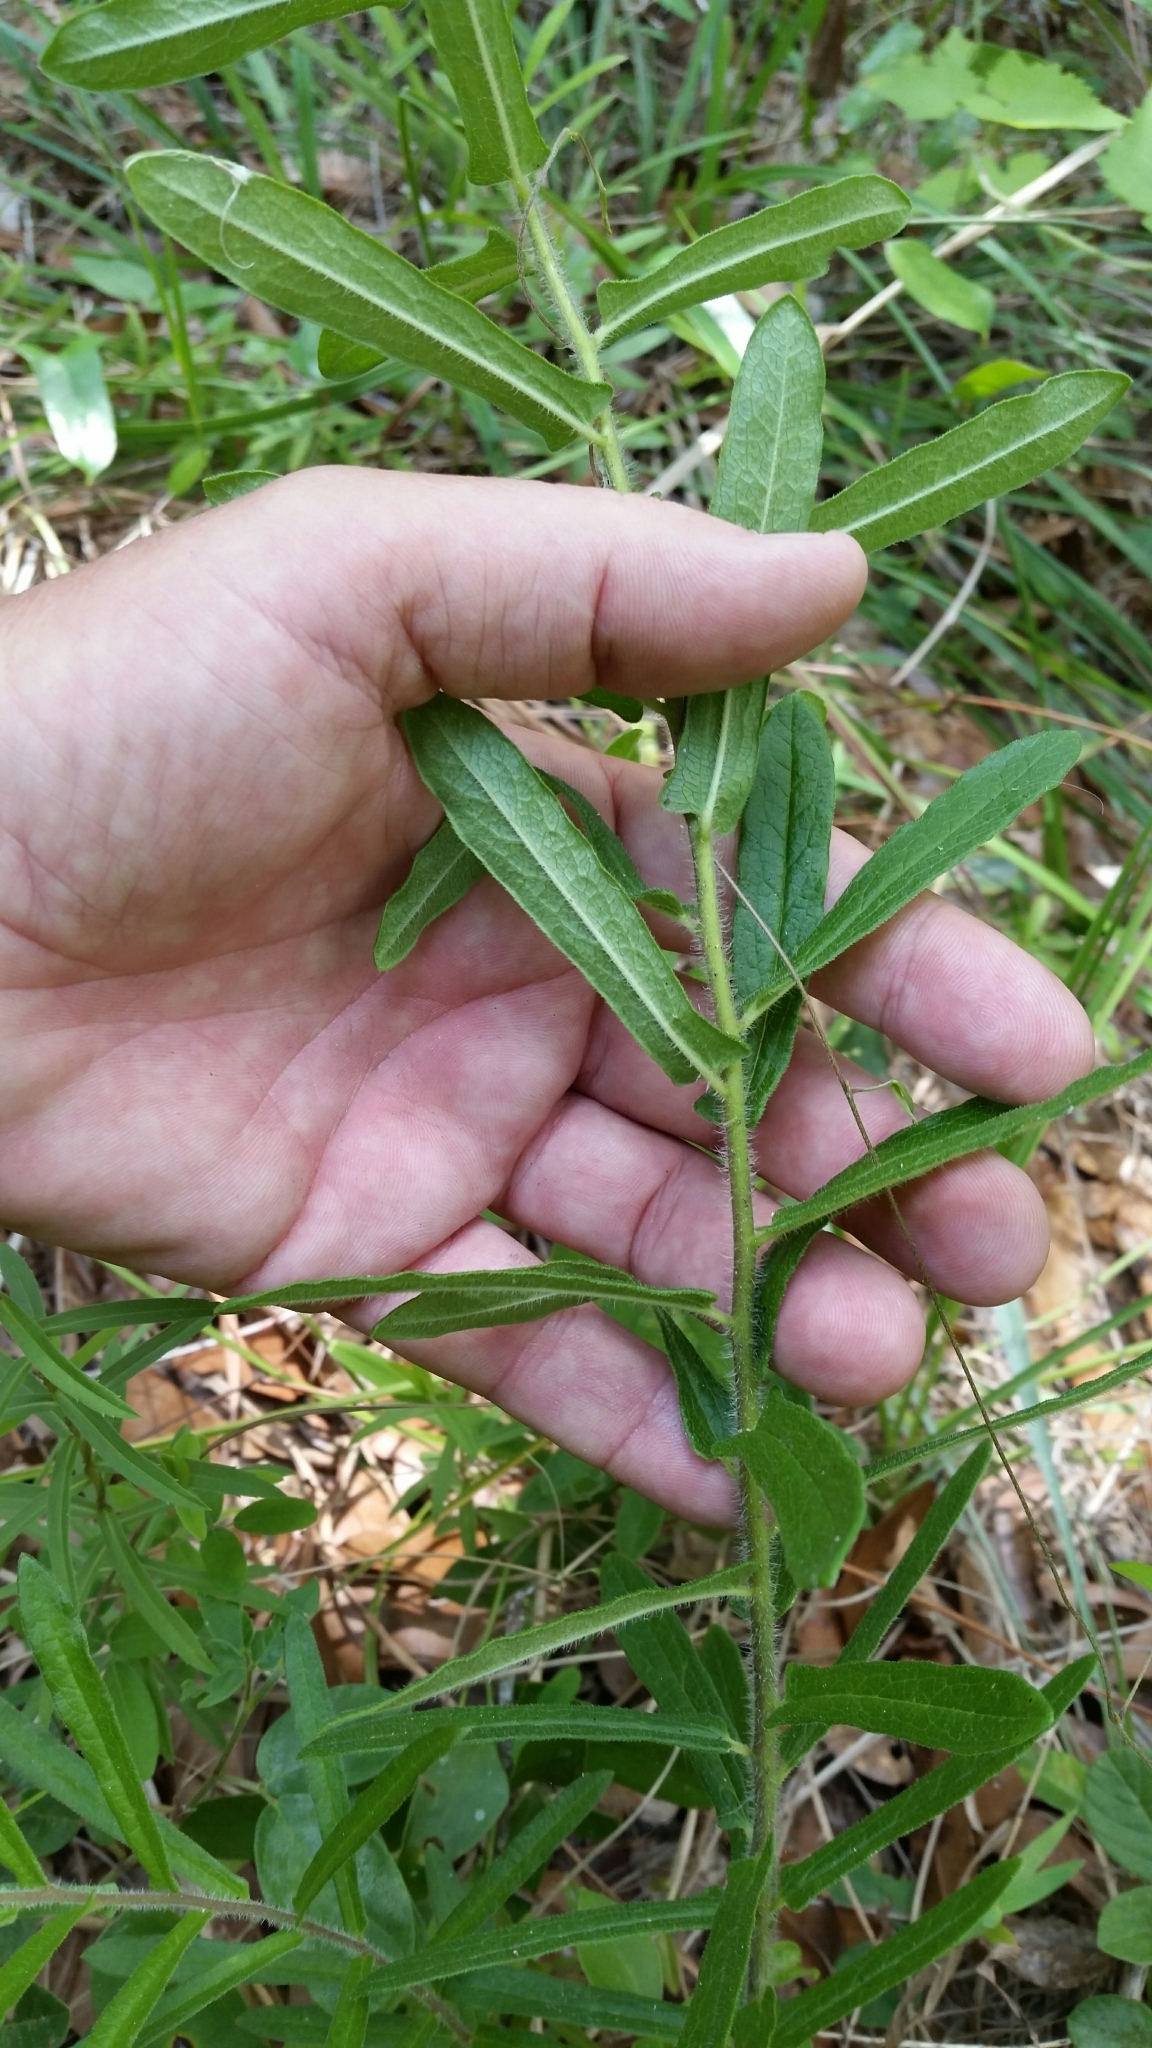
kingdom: Plantae
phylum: Tracheophyta
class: Magnoliopsida
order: Gentianales
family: Apocynaceae
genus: Asclepias
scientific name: Asclepias tuberosa
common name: Butterfly milkweed
